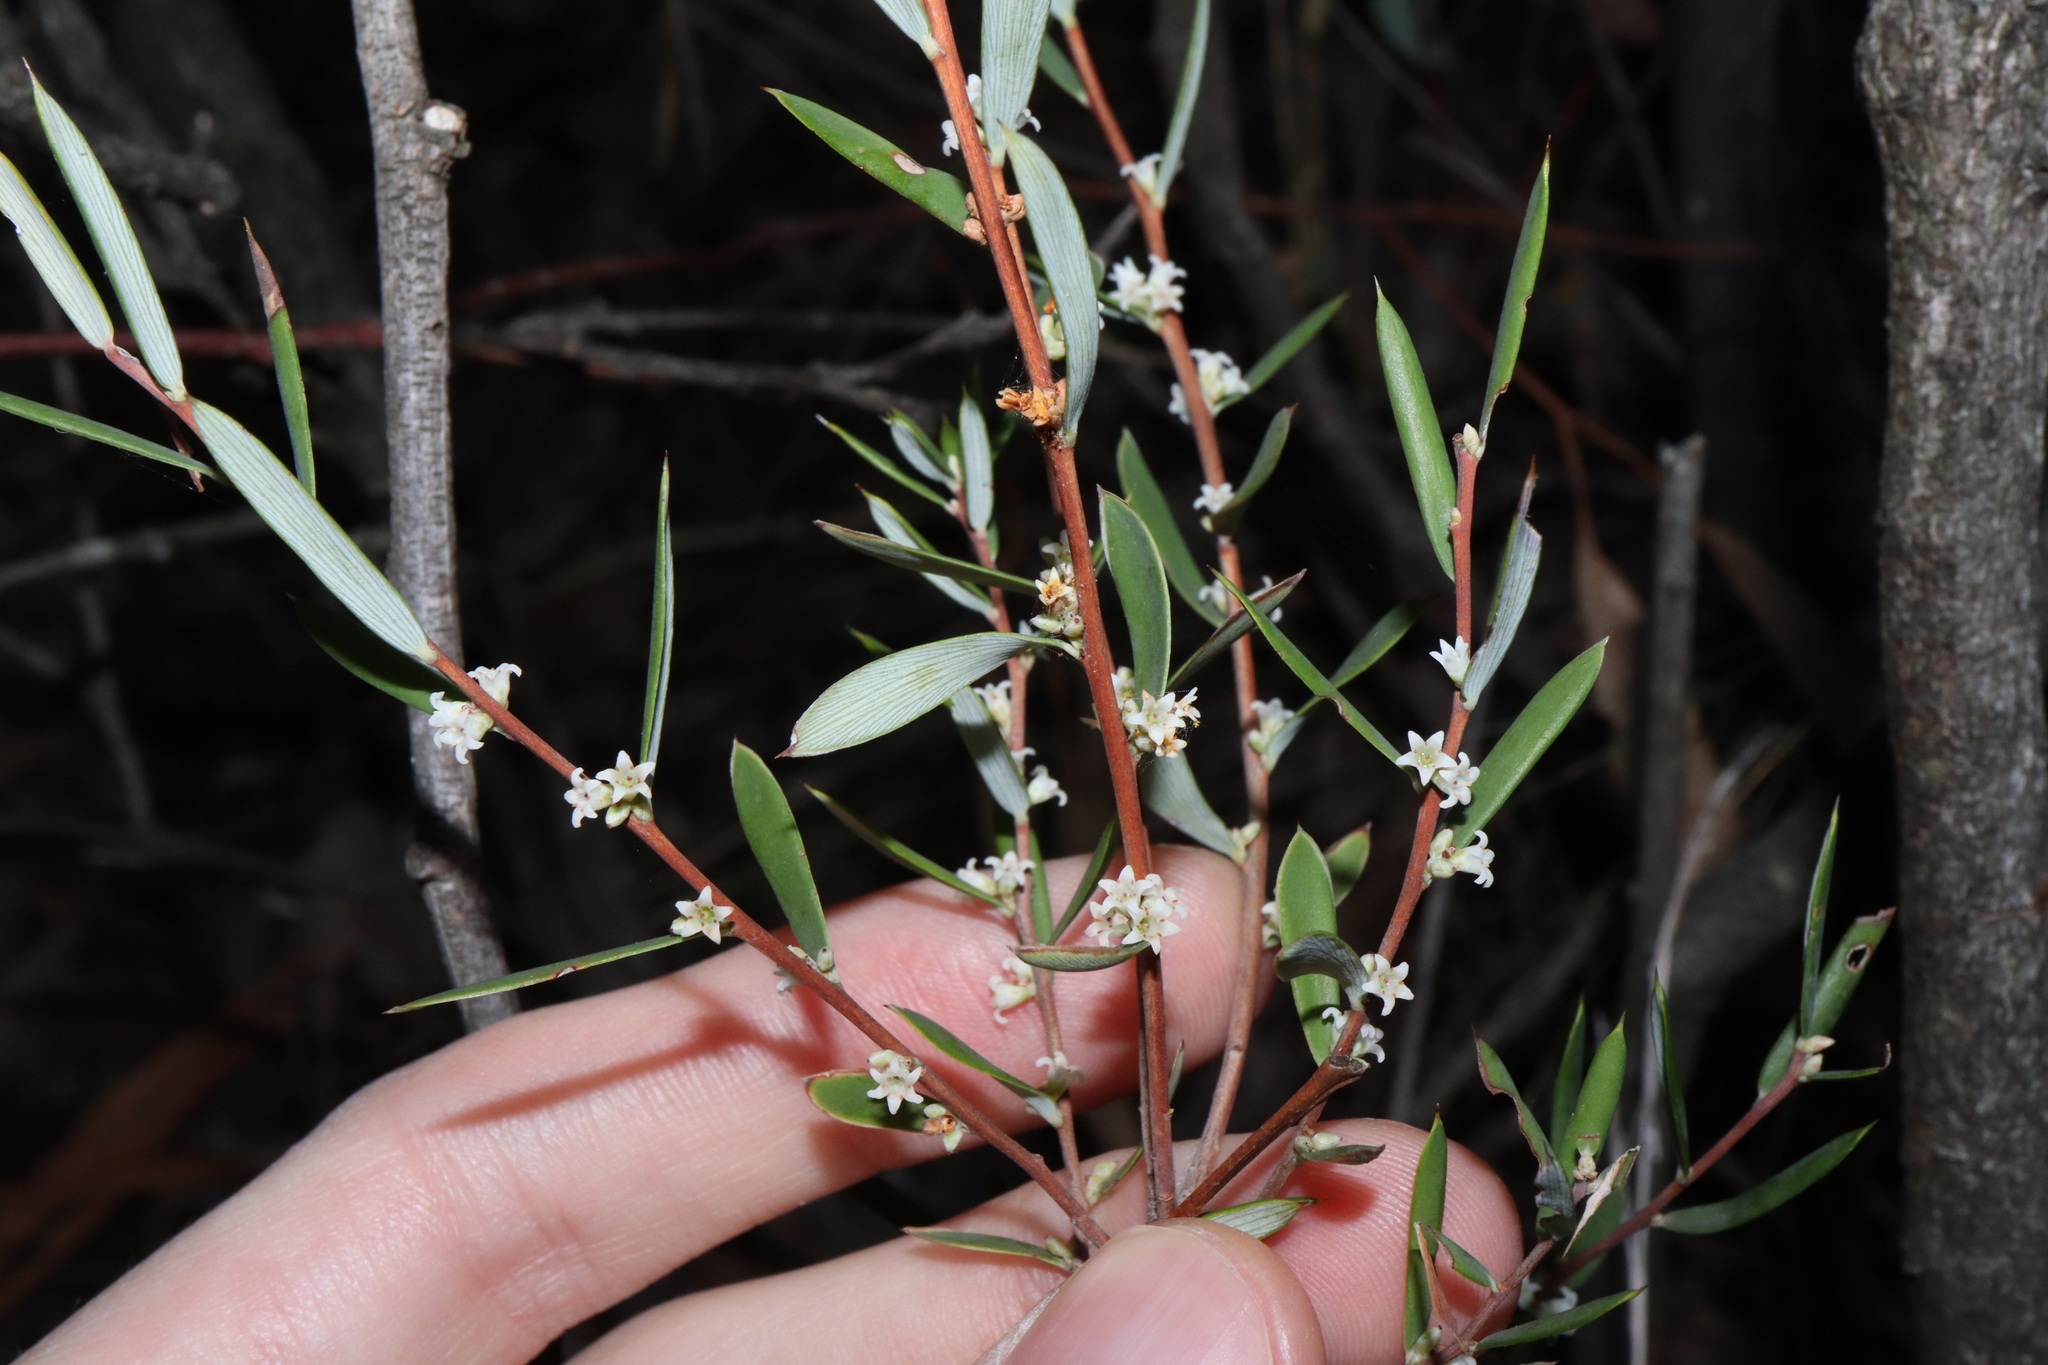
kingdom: Plantae
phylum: Tracheophyta
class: Magnoliopsida
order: Ericales
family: Ericaceae
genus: Monotoca
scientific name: Monotoca scoparia
